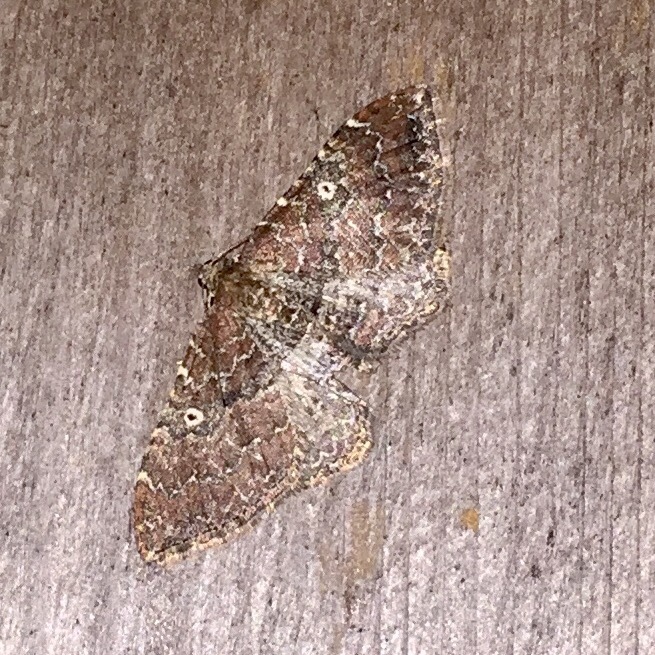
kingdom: Animalia
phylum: Arthropoda
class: Insecta
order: Lepidoptera
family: Geometridae
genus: Orthonama
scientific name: Orthonama obstipata
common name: The gem
